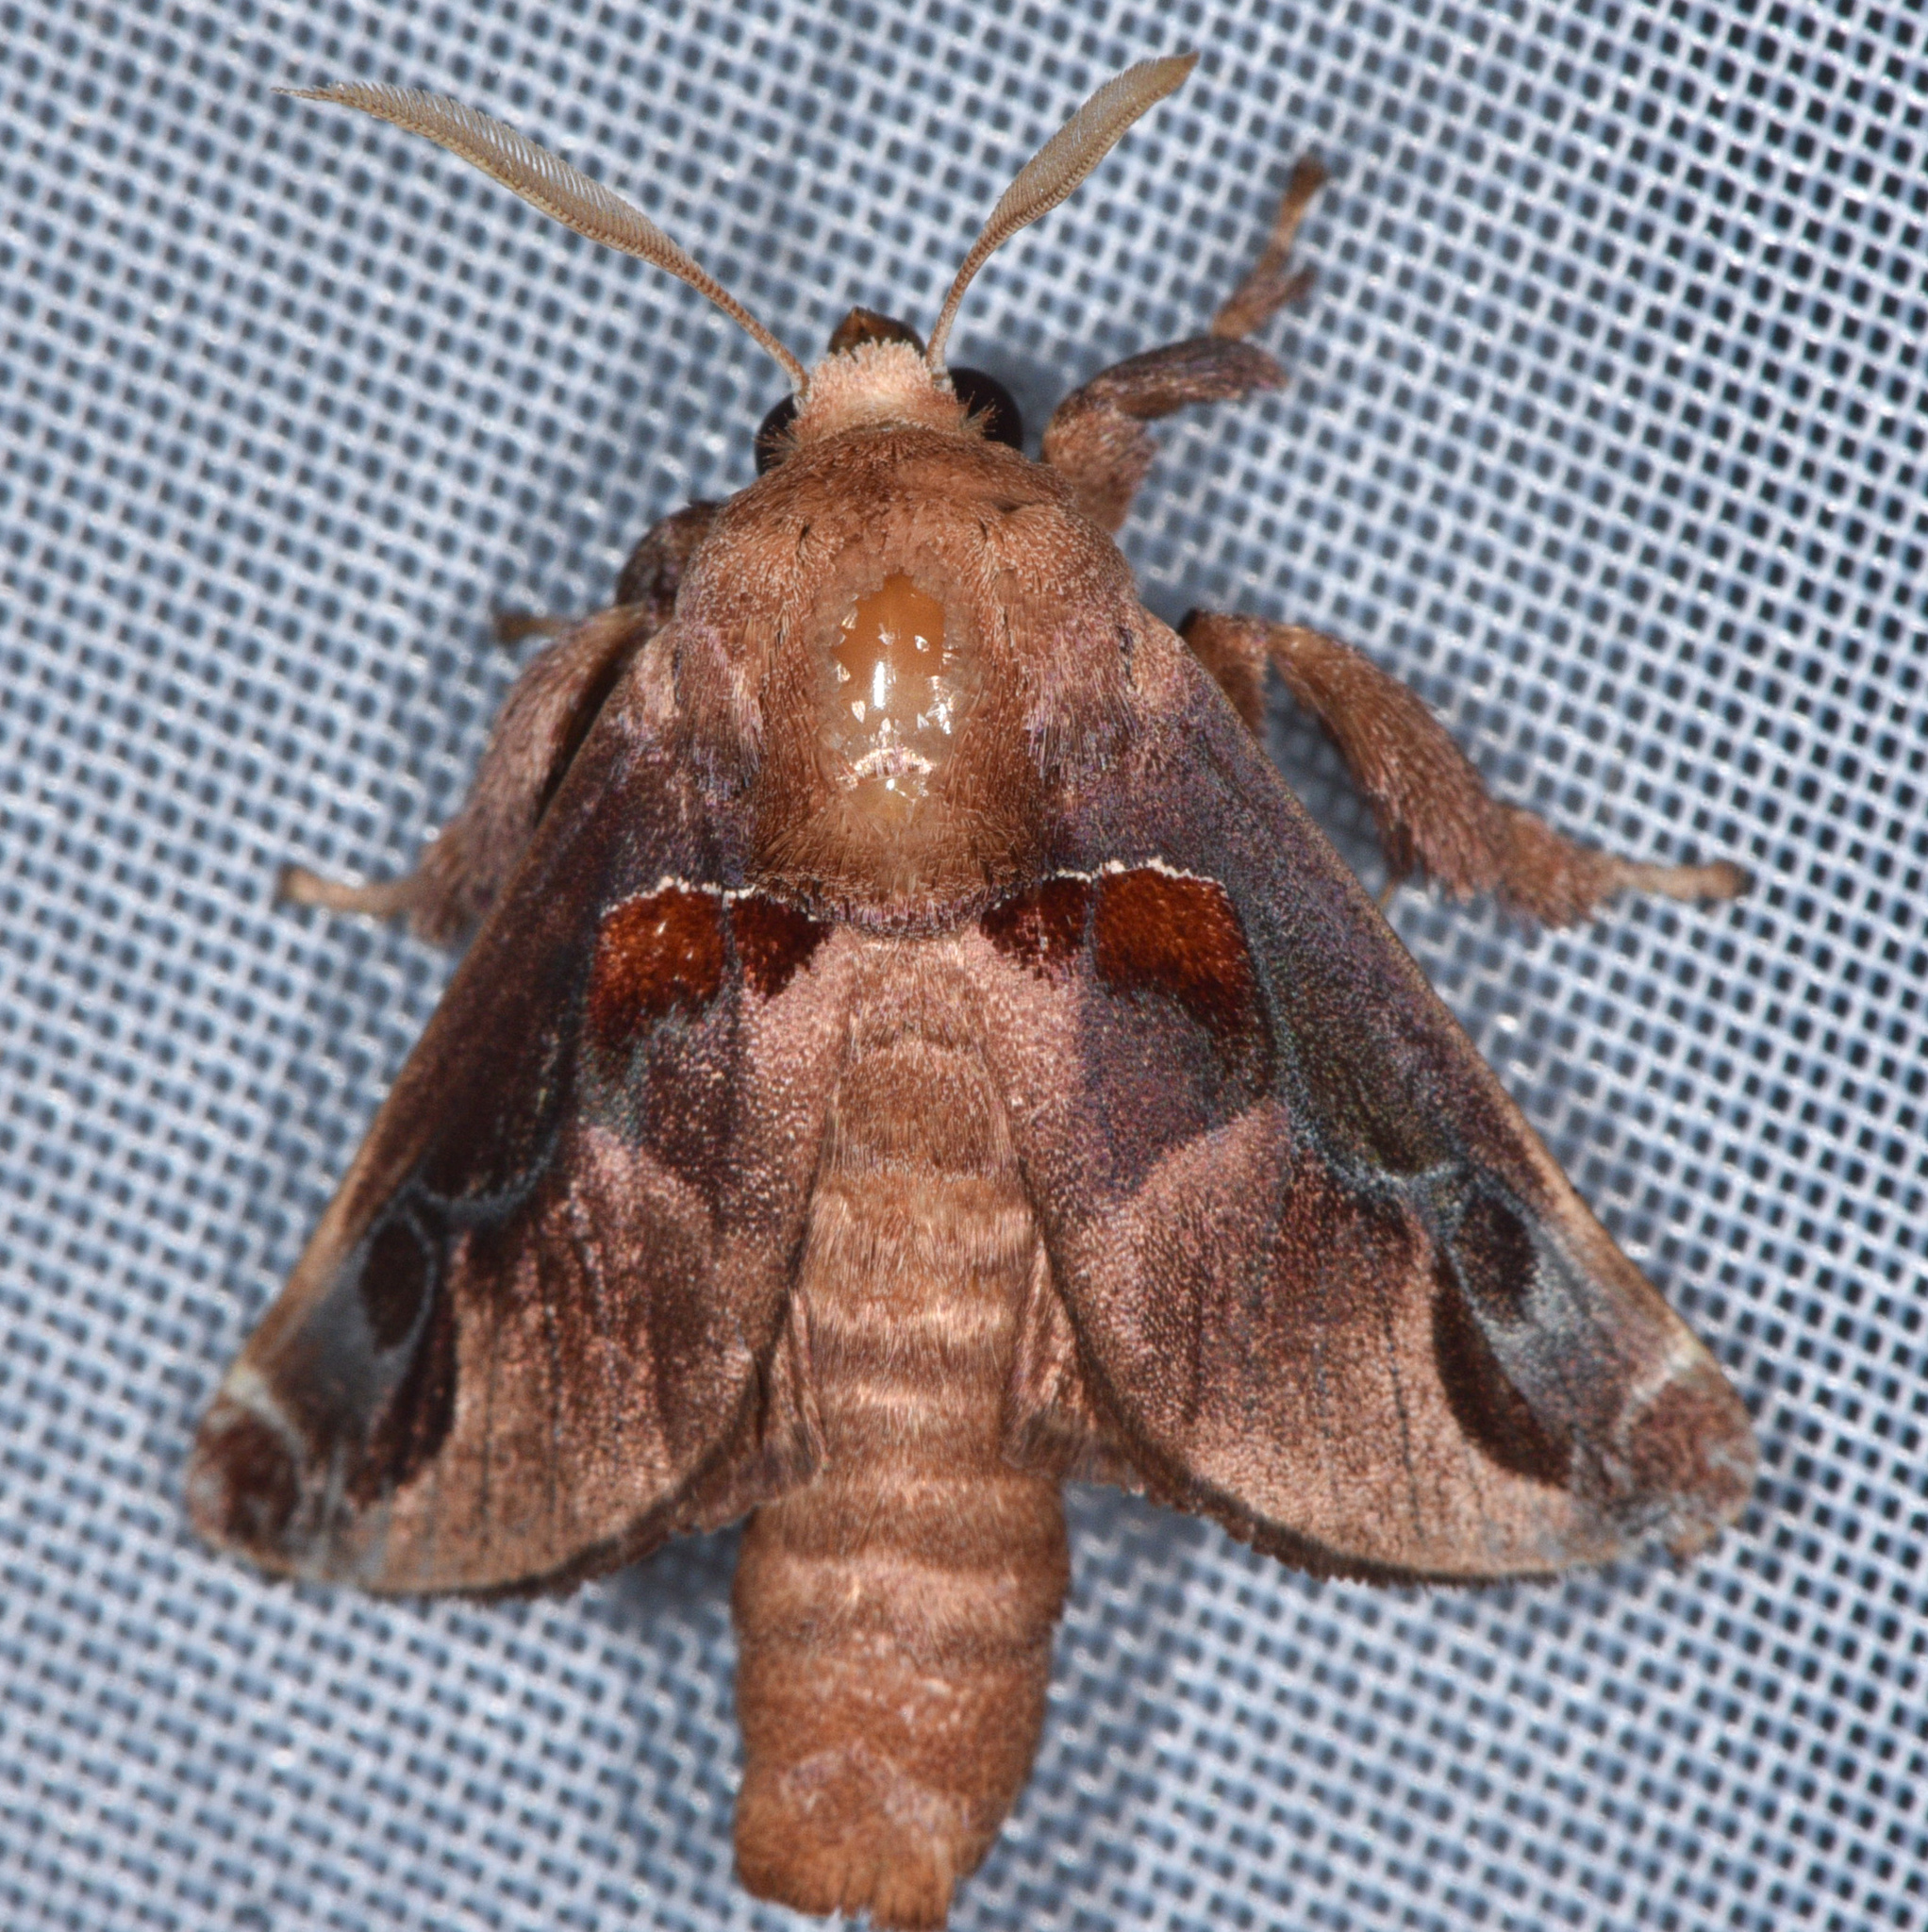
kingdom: Animalia
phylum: Arthropoda
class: Insecta
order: Lepidoptera
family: Limacodidae
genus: Semyra
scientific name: Semyra bella
